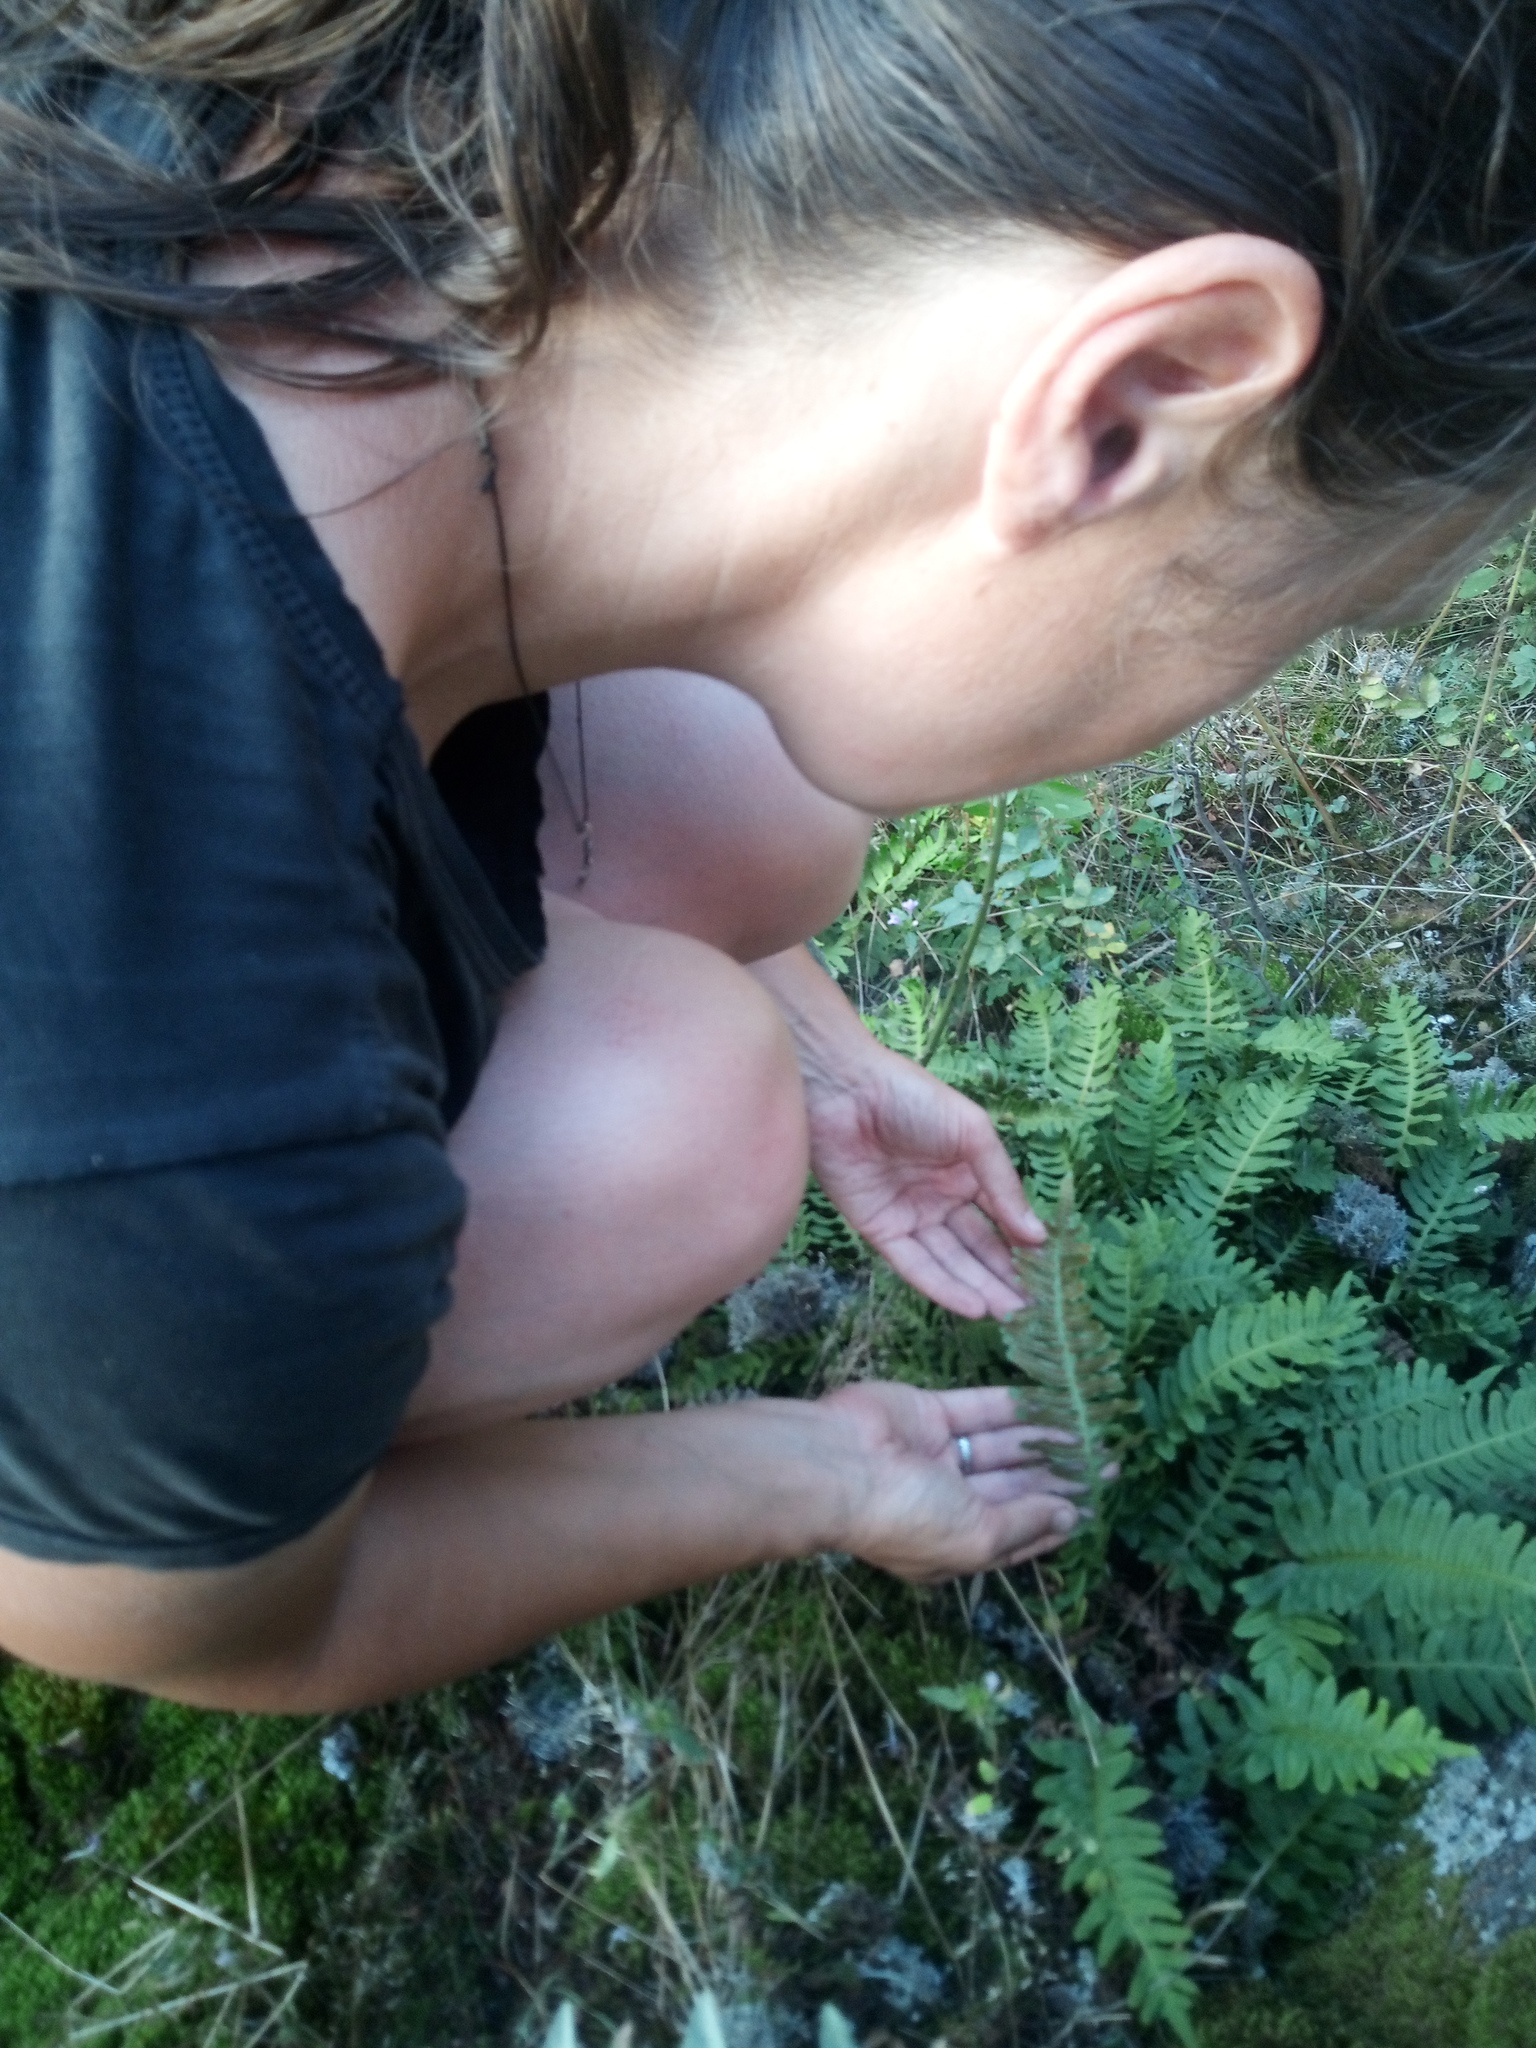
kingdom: Plantae
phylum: Tracheophyta
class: Polypodiopsida
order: Polypodiales
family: Polypodiaceae
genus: Polypodium
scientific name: Polypodium vulgare
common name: Common polypody
